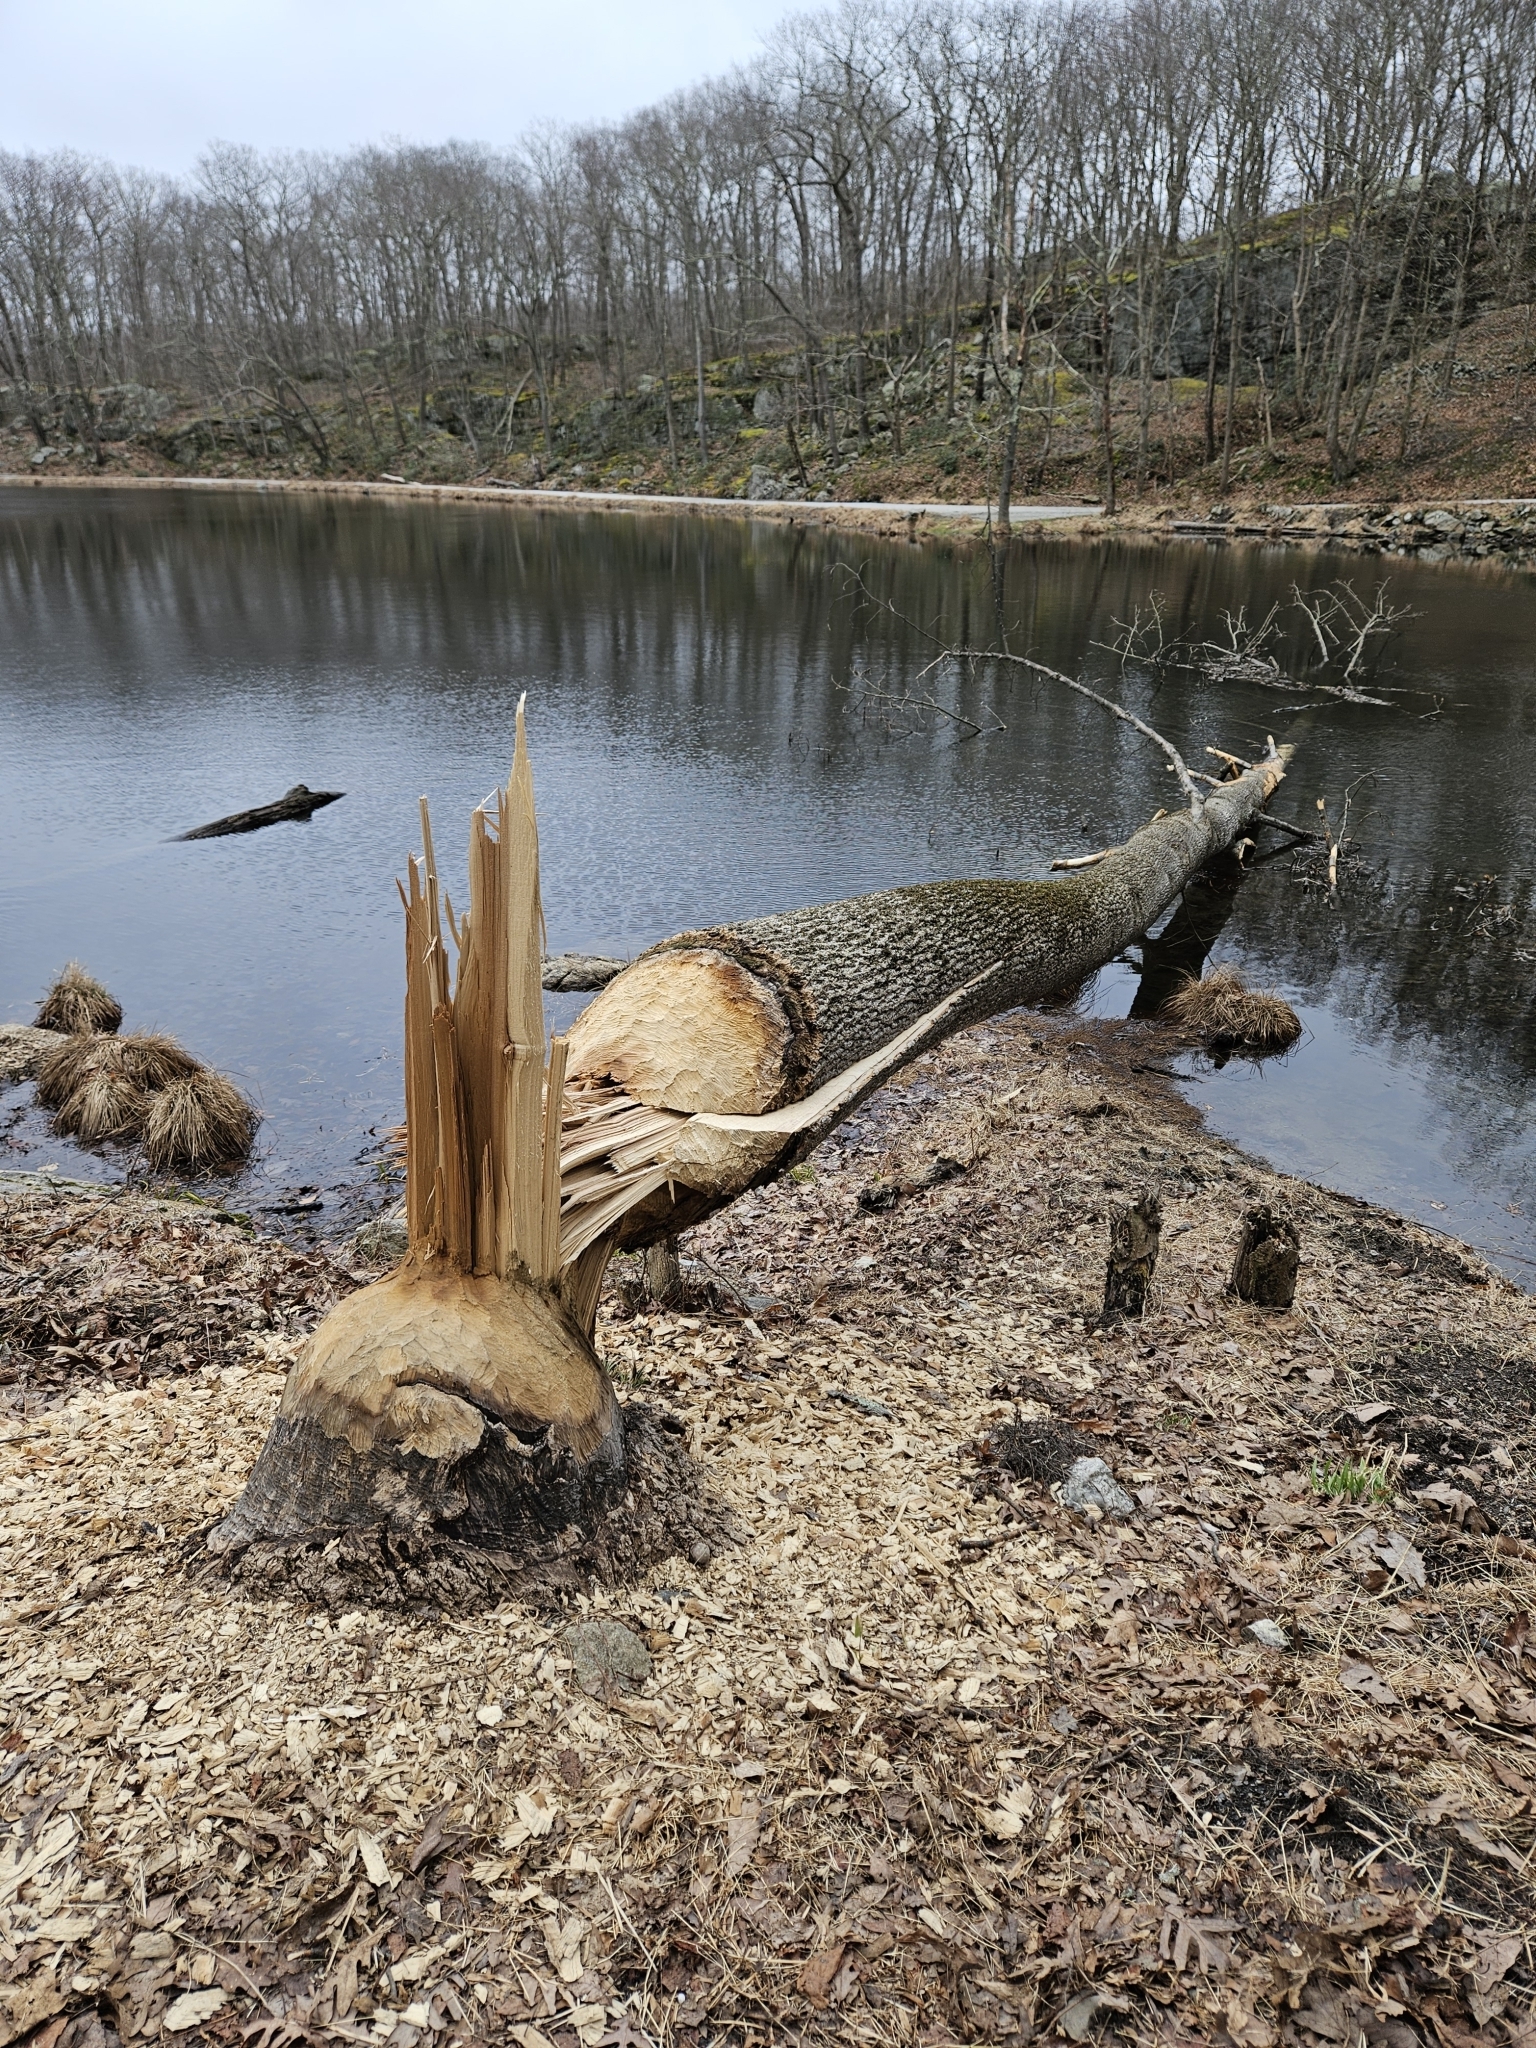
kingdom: Animalia
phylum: Chordata
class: Mammalia
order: Rodentia
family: Castoridae
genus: Castor
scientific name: Castor canadensis
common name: American beaver
